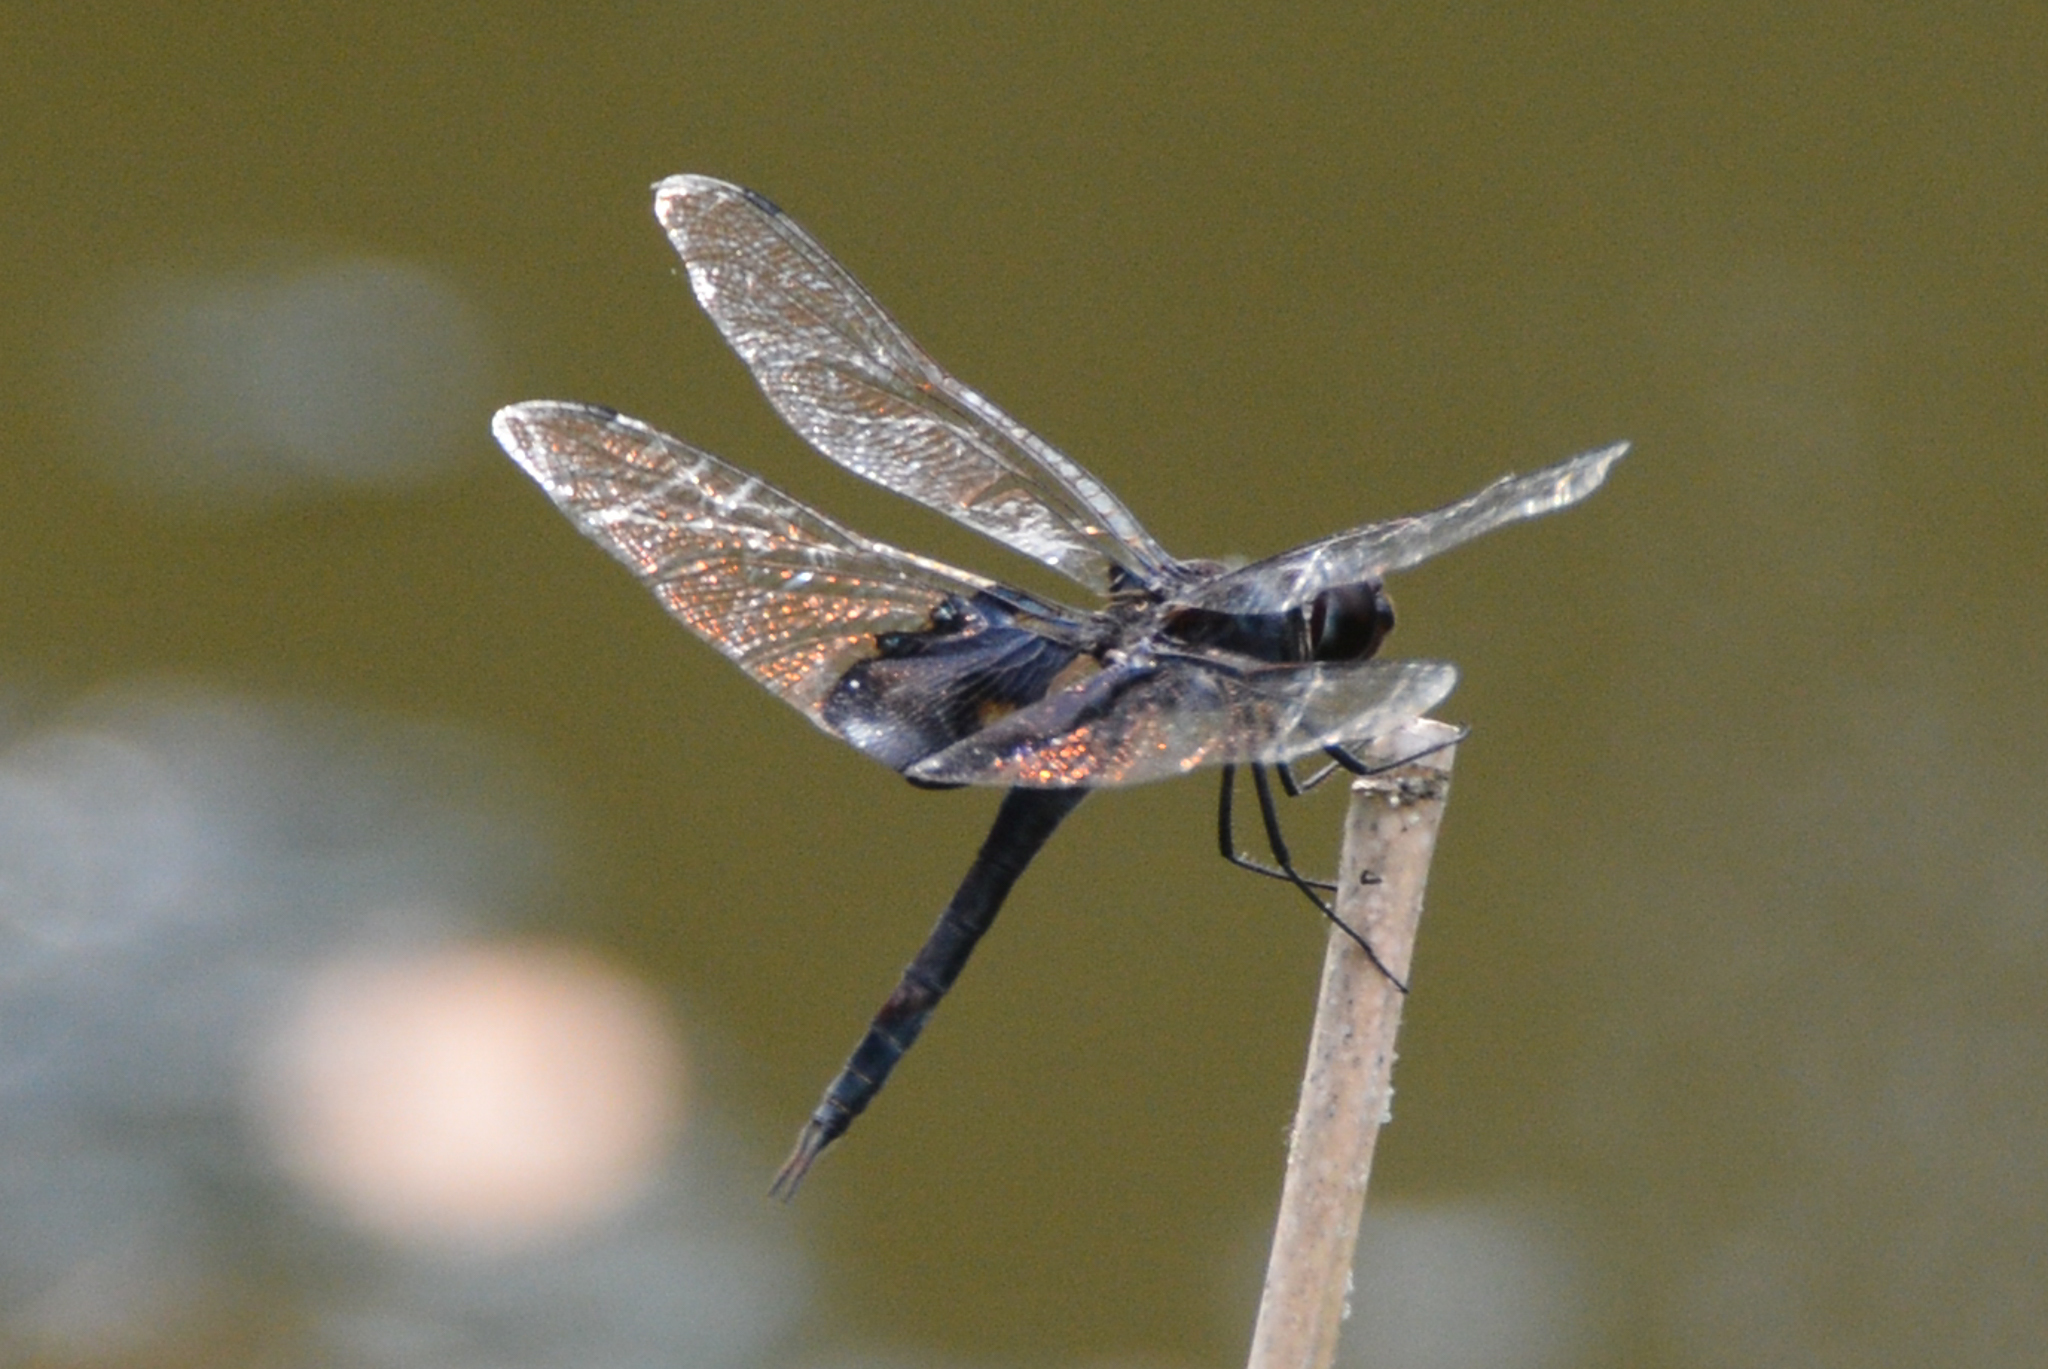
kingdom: Animalia
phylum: Arthropoda
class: Insecta
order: Odonata
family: Libellulidae
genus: Tramea
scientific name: Tramea lacerata
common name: Black saddlebags
